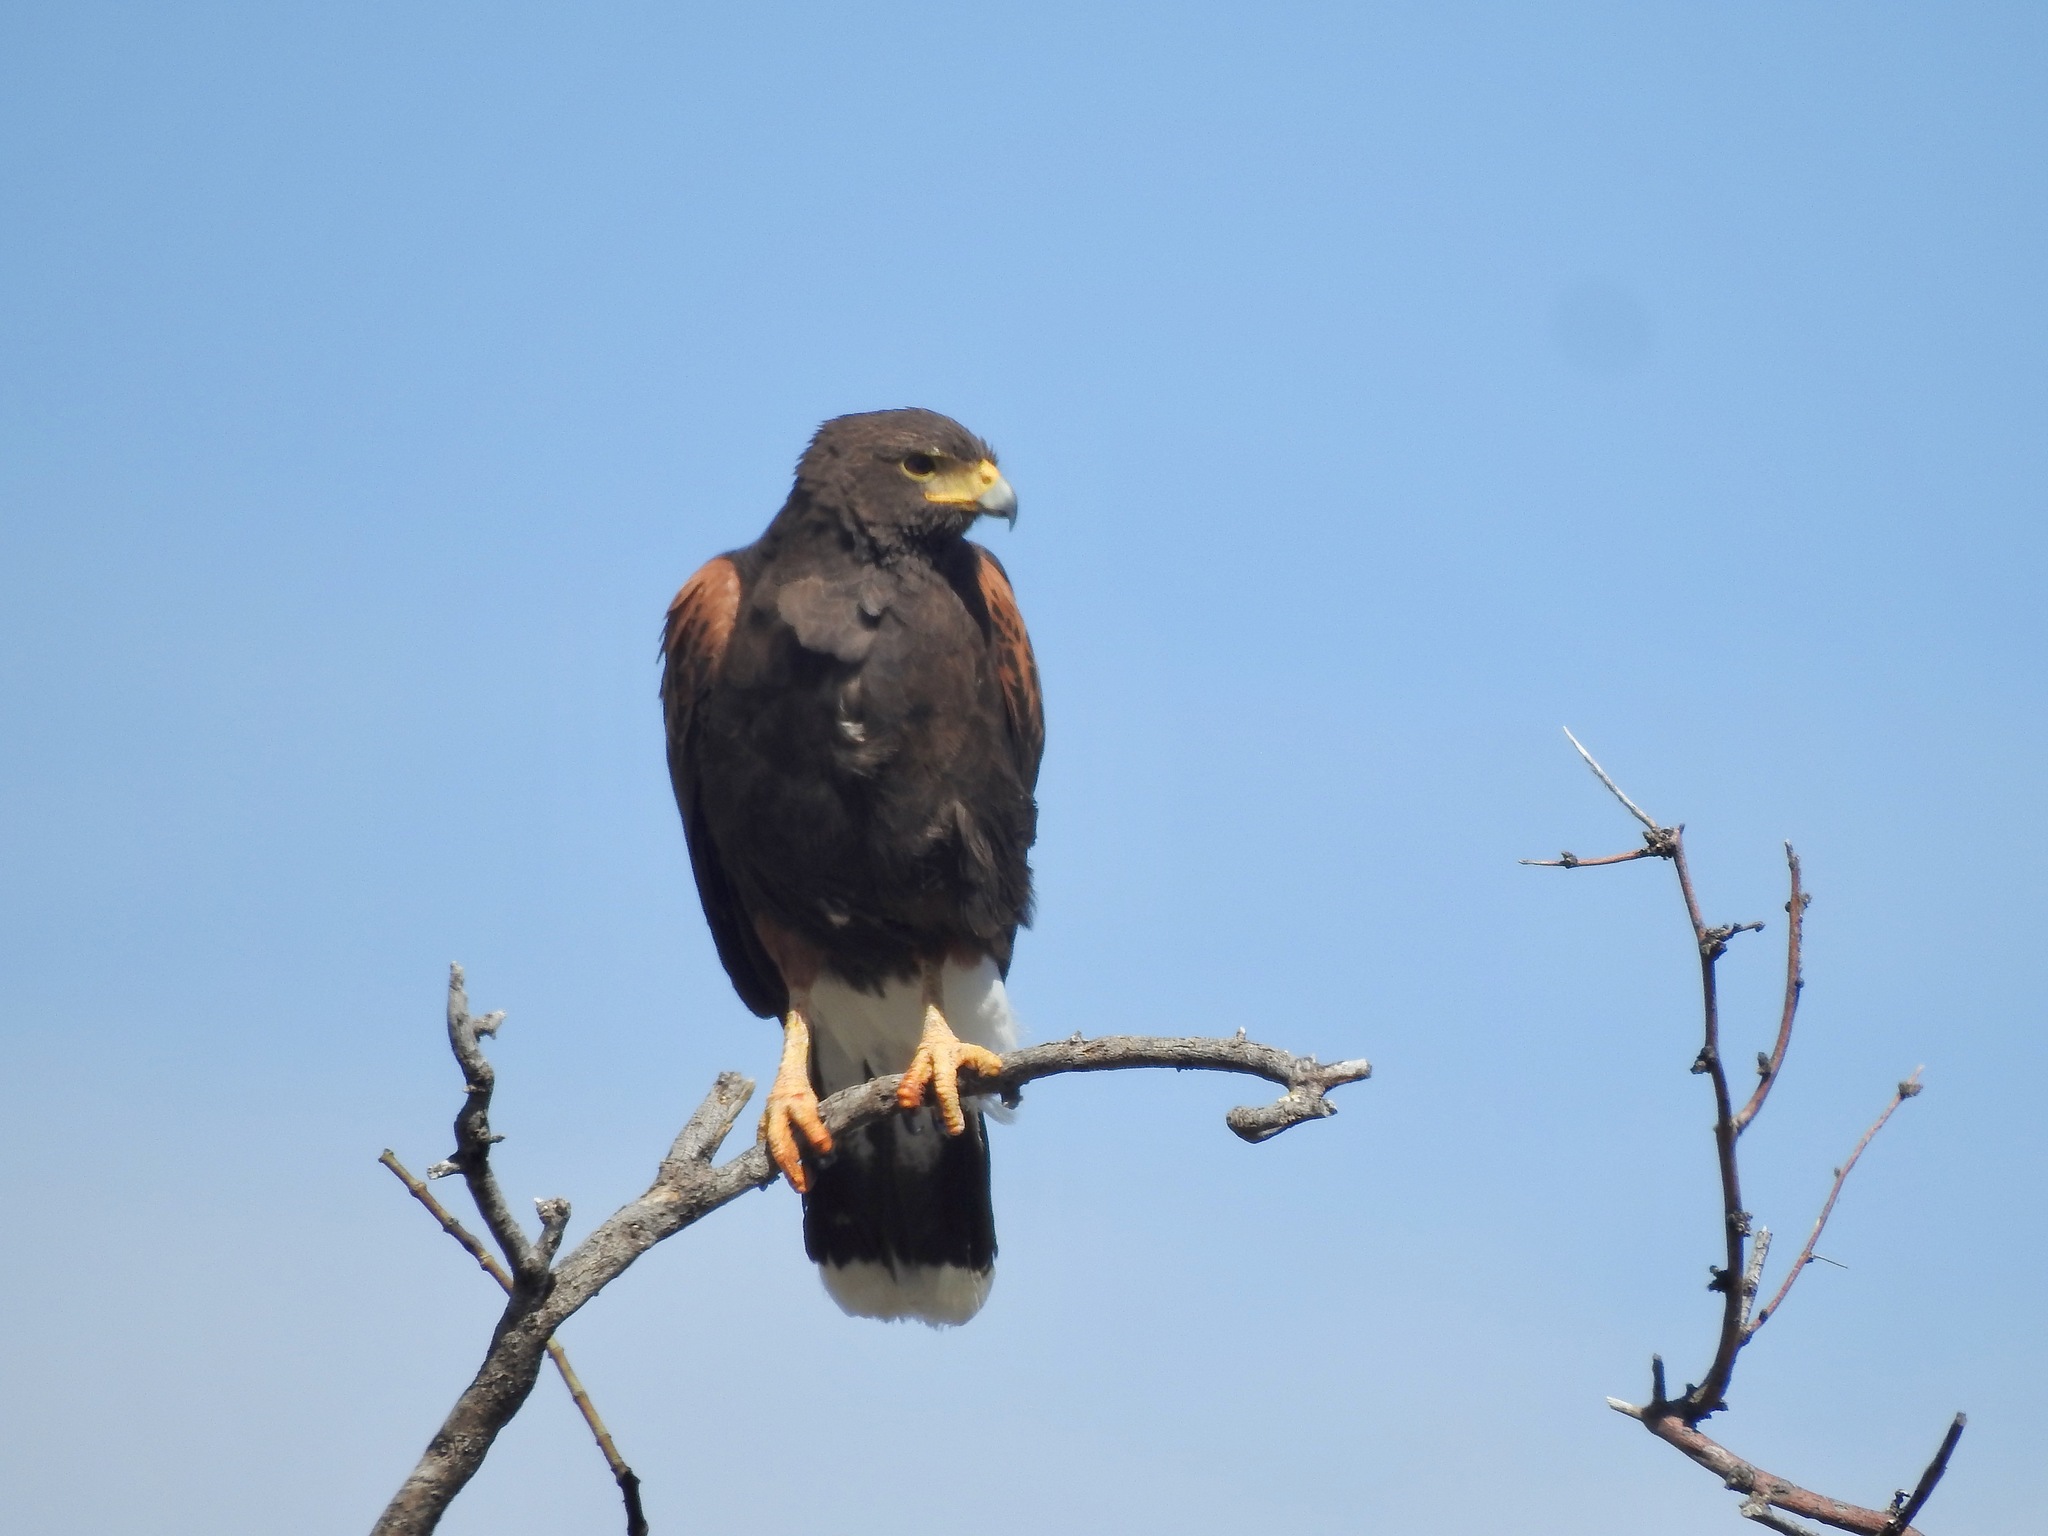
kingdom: Animalia
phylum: Chordata
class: Aves
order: Accipitriformes
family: Accipitridae
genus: Parabuteo
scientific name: Parabuteo unicinctus
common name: Harris's hawk
